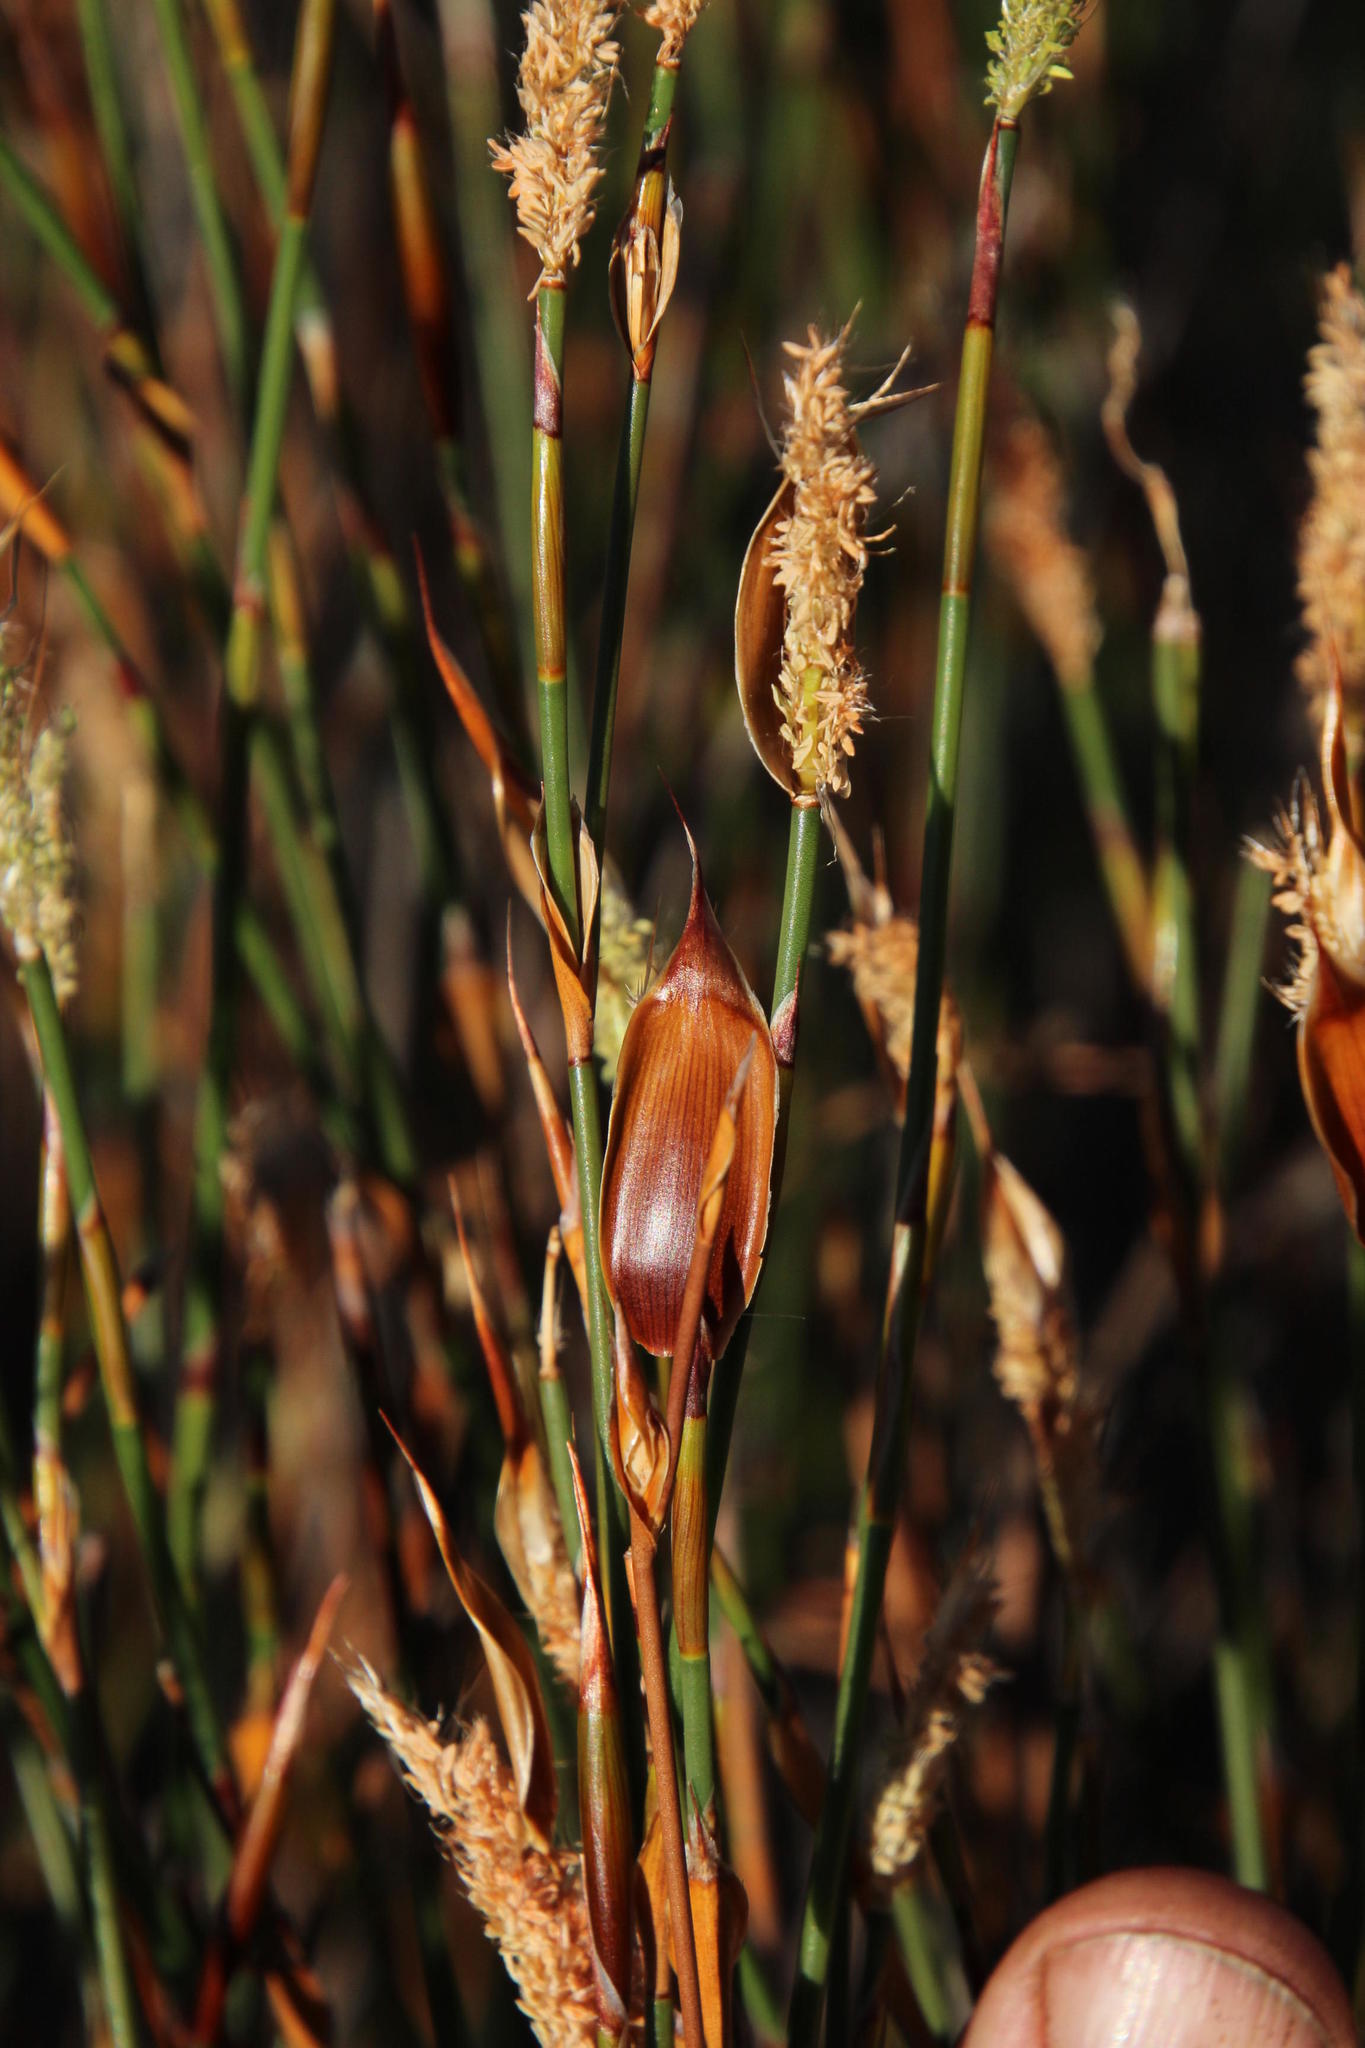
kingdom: Plantae
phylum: Tracheophyta
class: Liliopsida
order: Poales
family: Restionaceae
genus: Willdenowia
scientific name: Willdenowia incurvata
